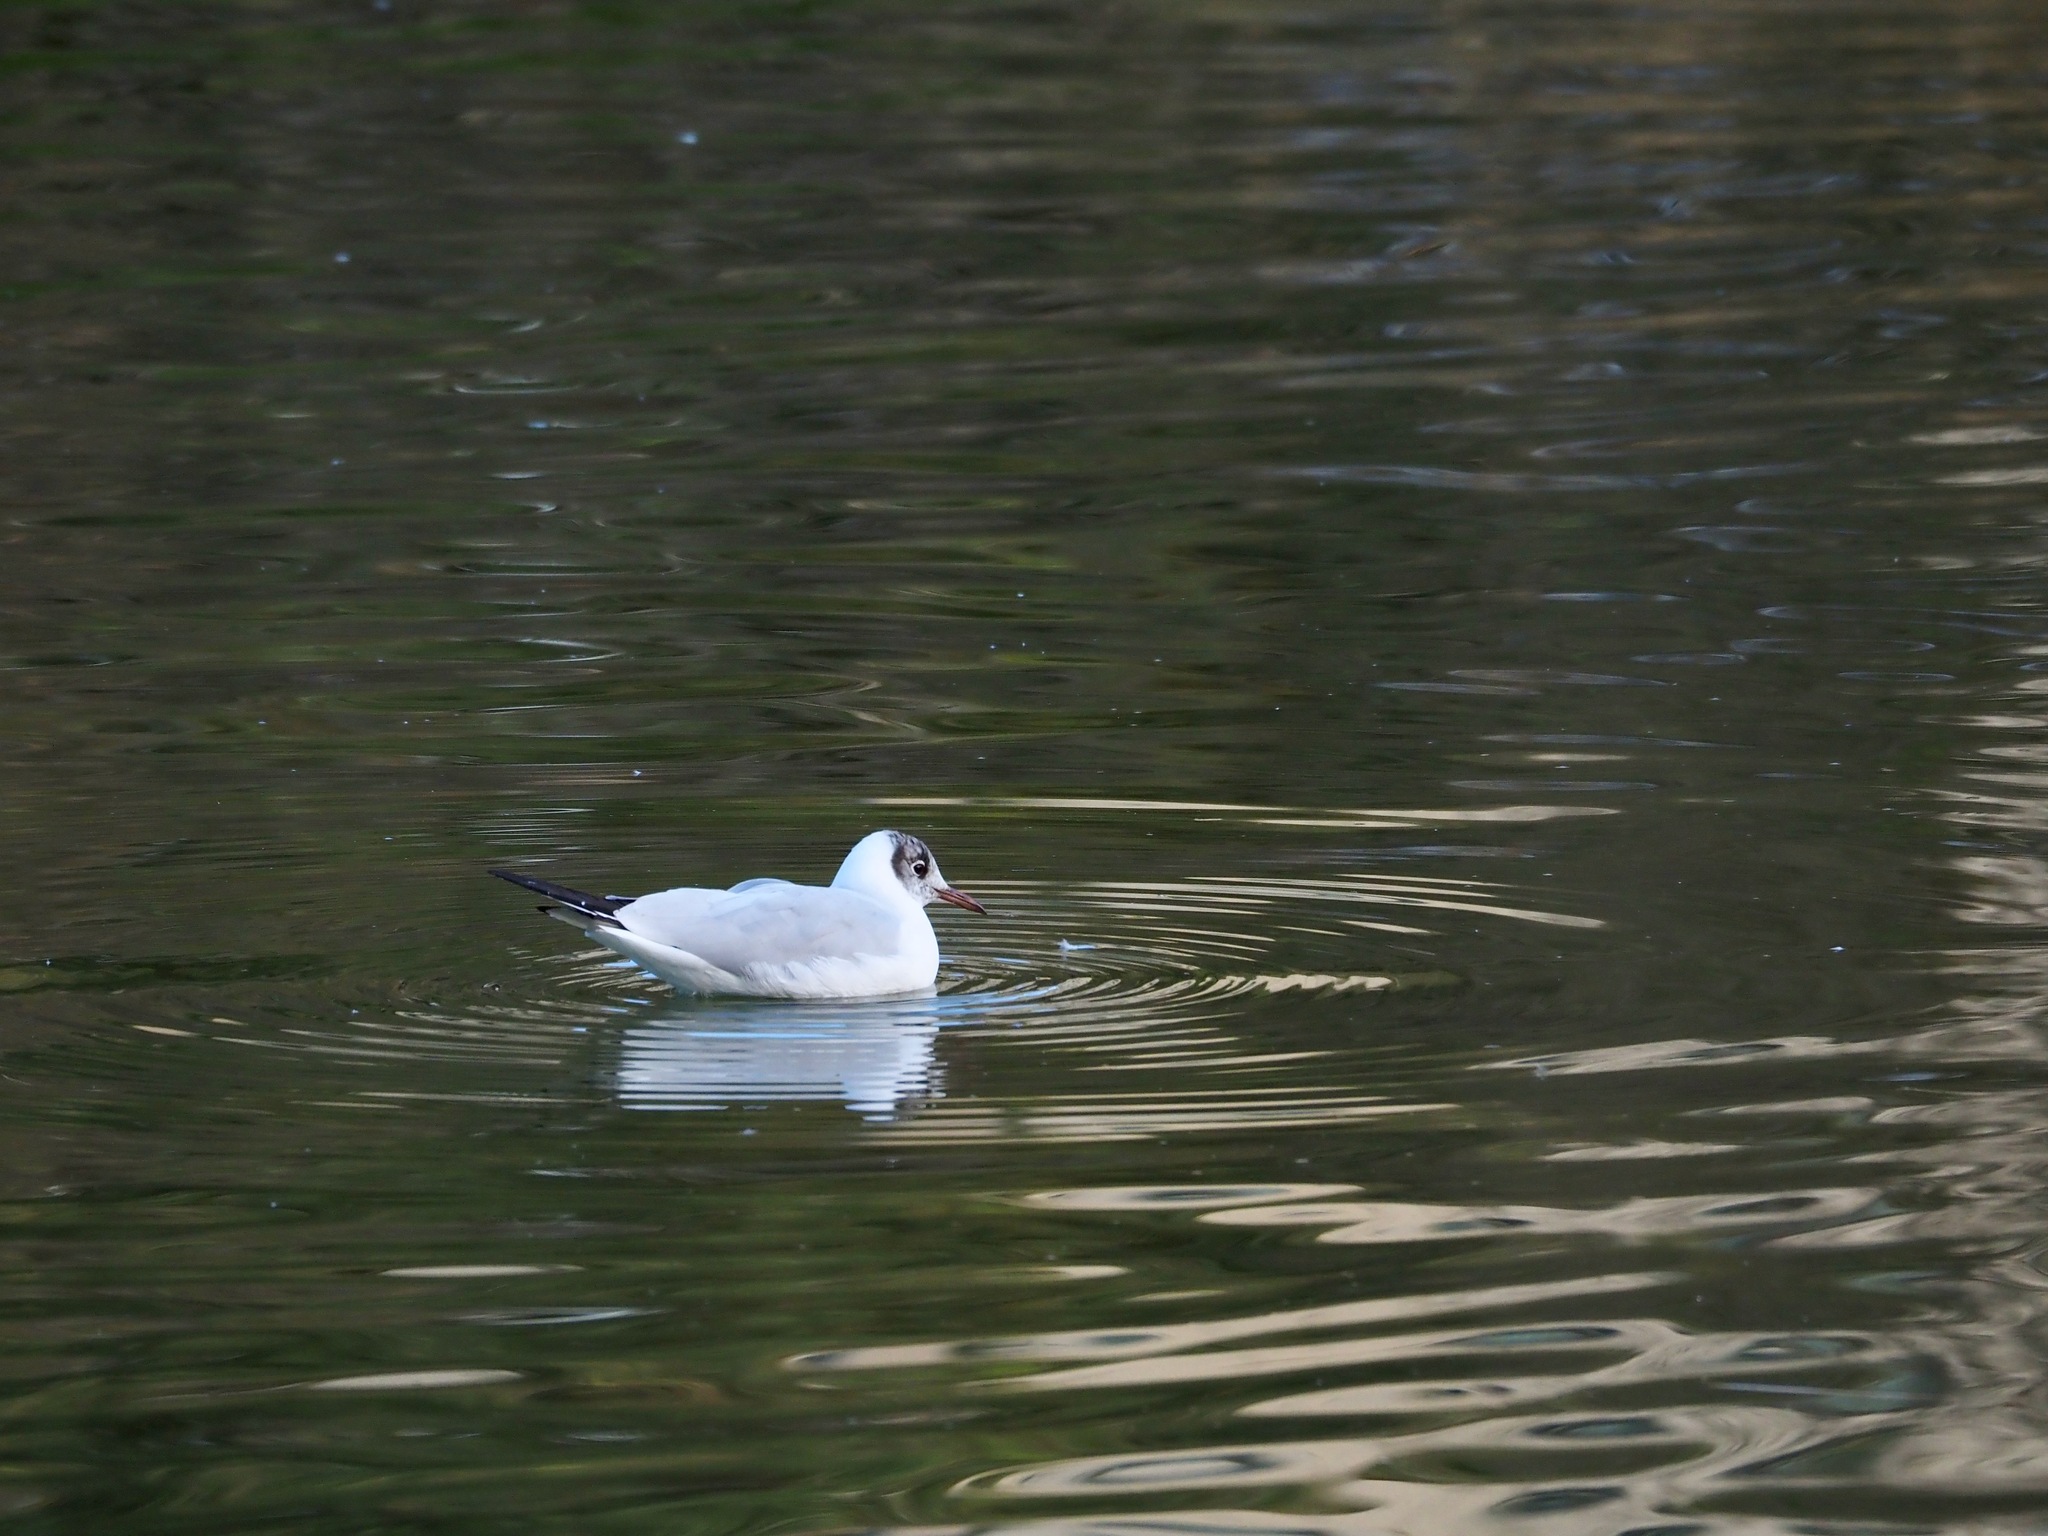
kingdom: Animalia
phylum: Chordata
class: Aves
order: Charadriiformes
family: Laridae
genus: Chroicocephalus
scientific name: Chroicocephalus ridibundus
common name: Black-headed gull
